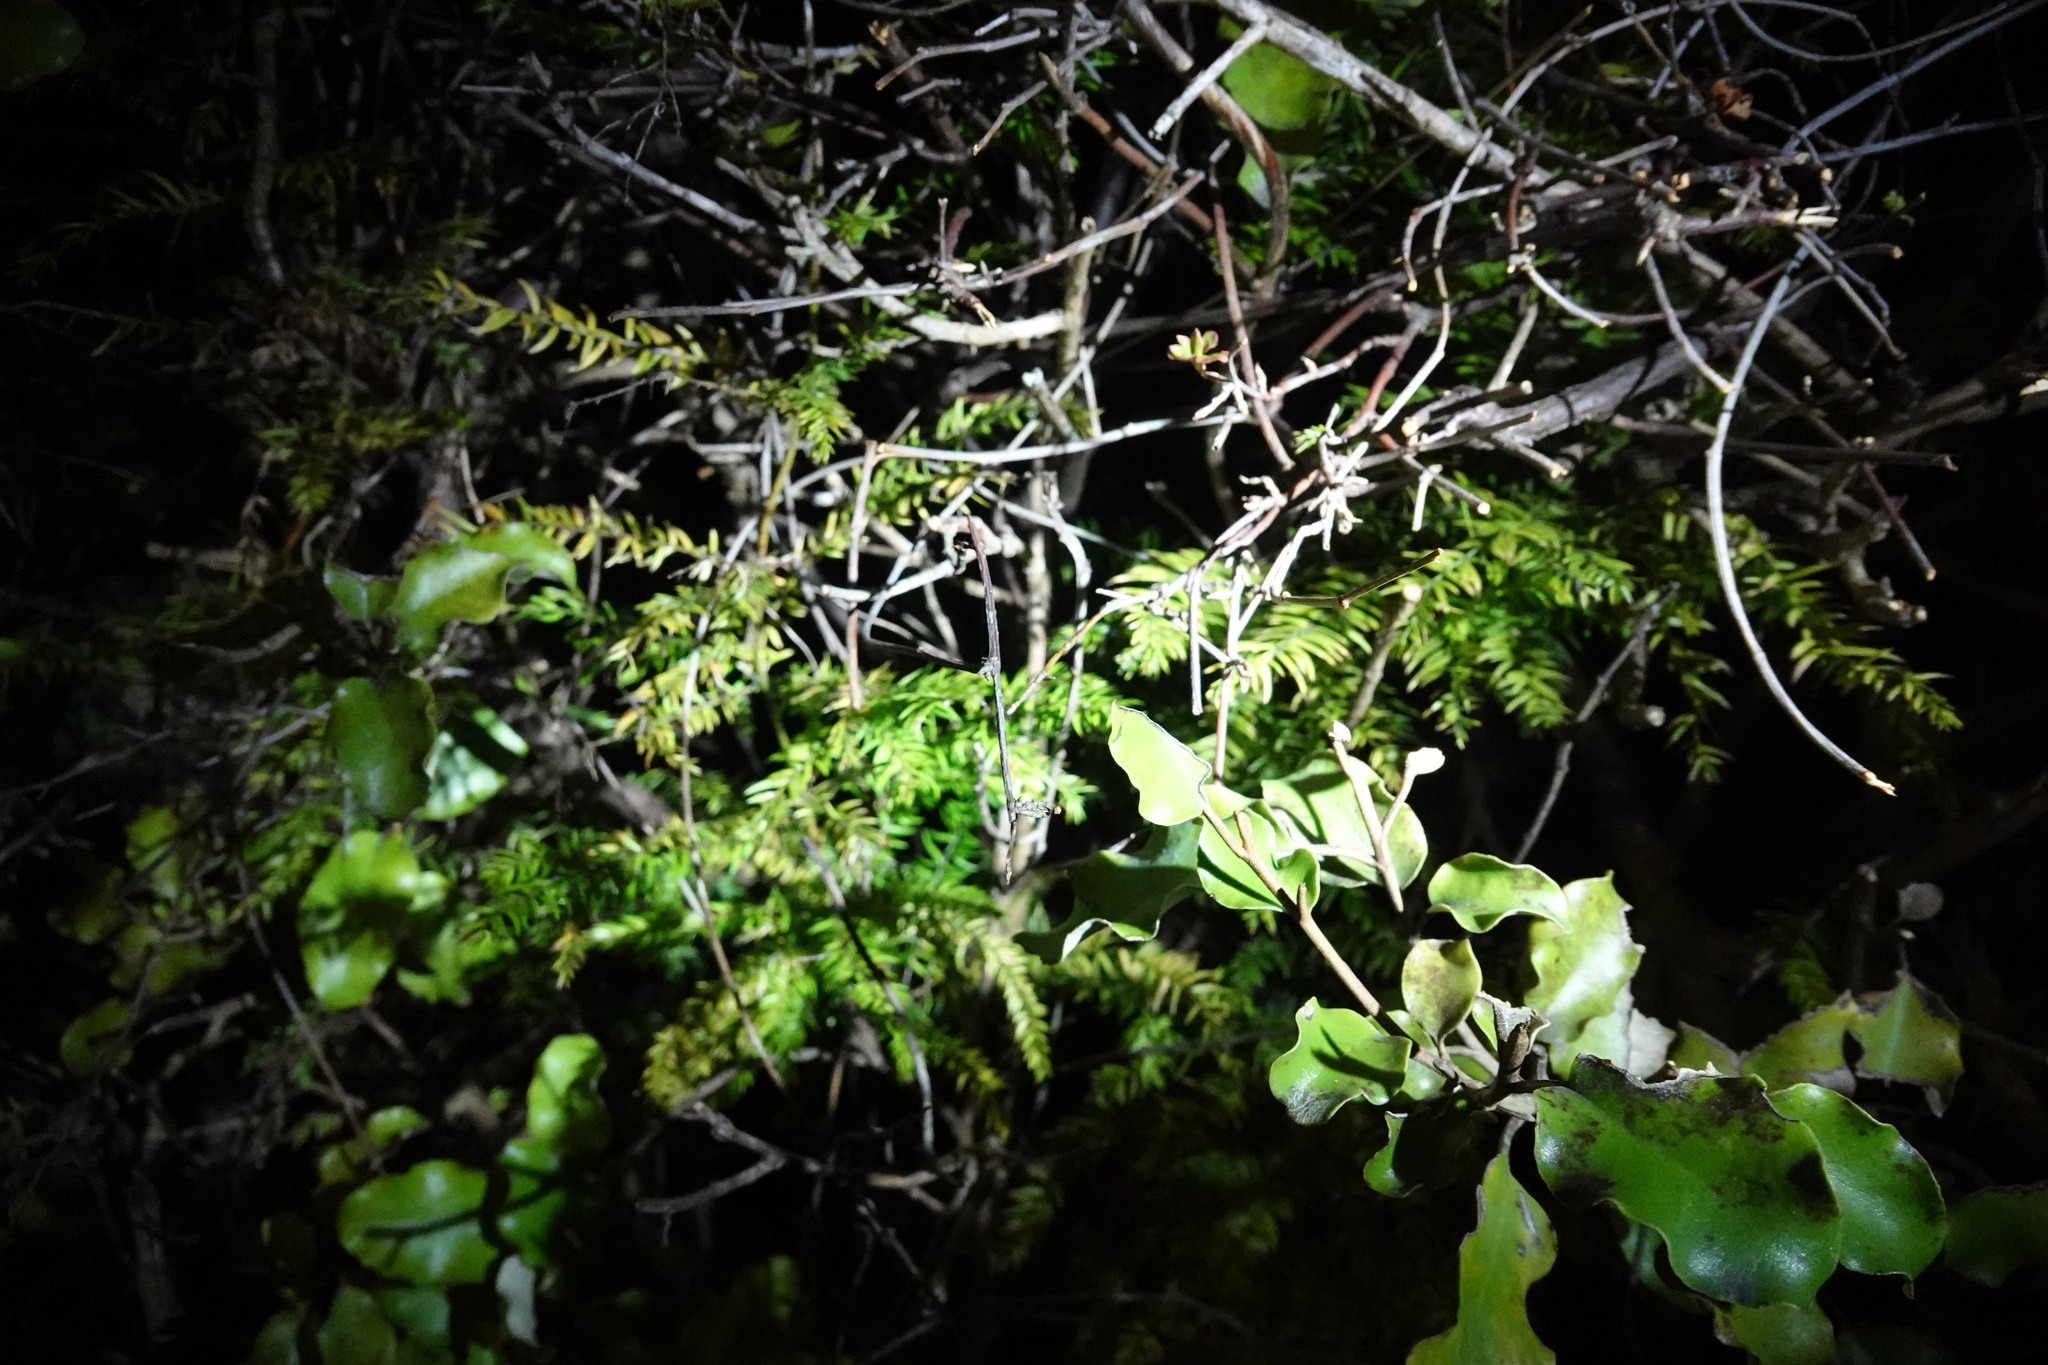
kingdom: Plantae
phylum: Tracheophyta
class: Liliopsida
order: Asparagales
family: Asparagaceae
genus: Asparagus
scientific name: Asparagus scandens
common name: Asparagus-fern
